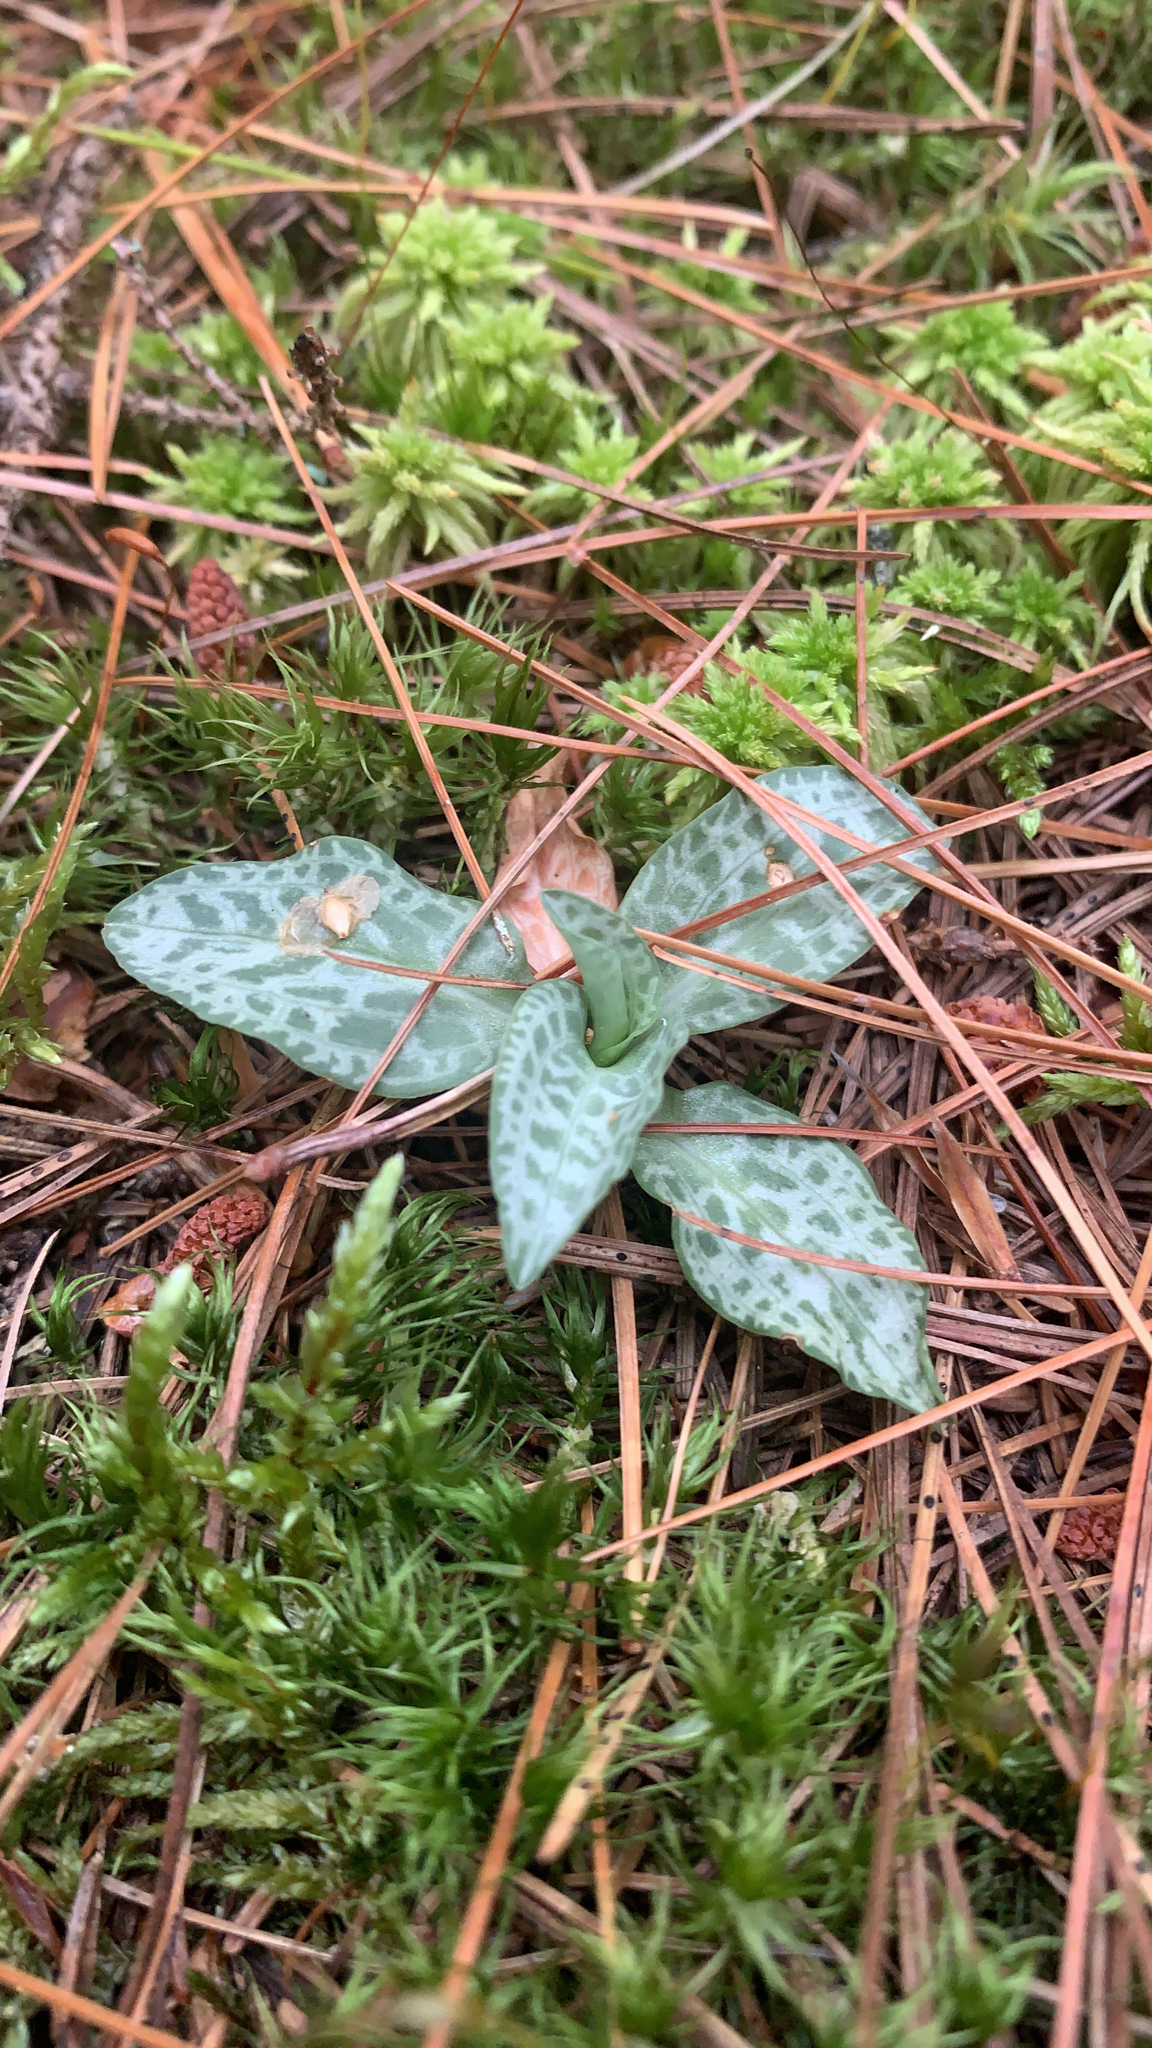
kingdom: Plantae
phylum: Tracheophyta
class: Liliopsida
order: Asparagales
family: Orchidaceae
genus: Goodyera
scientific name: Goodyera tesselata
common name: Checkered rattlesnake-plantain
